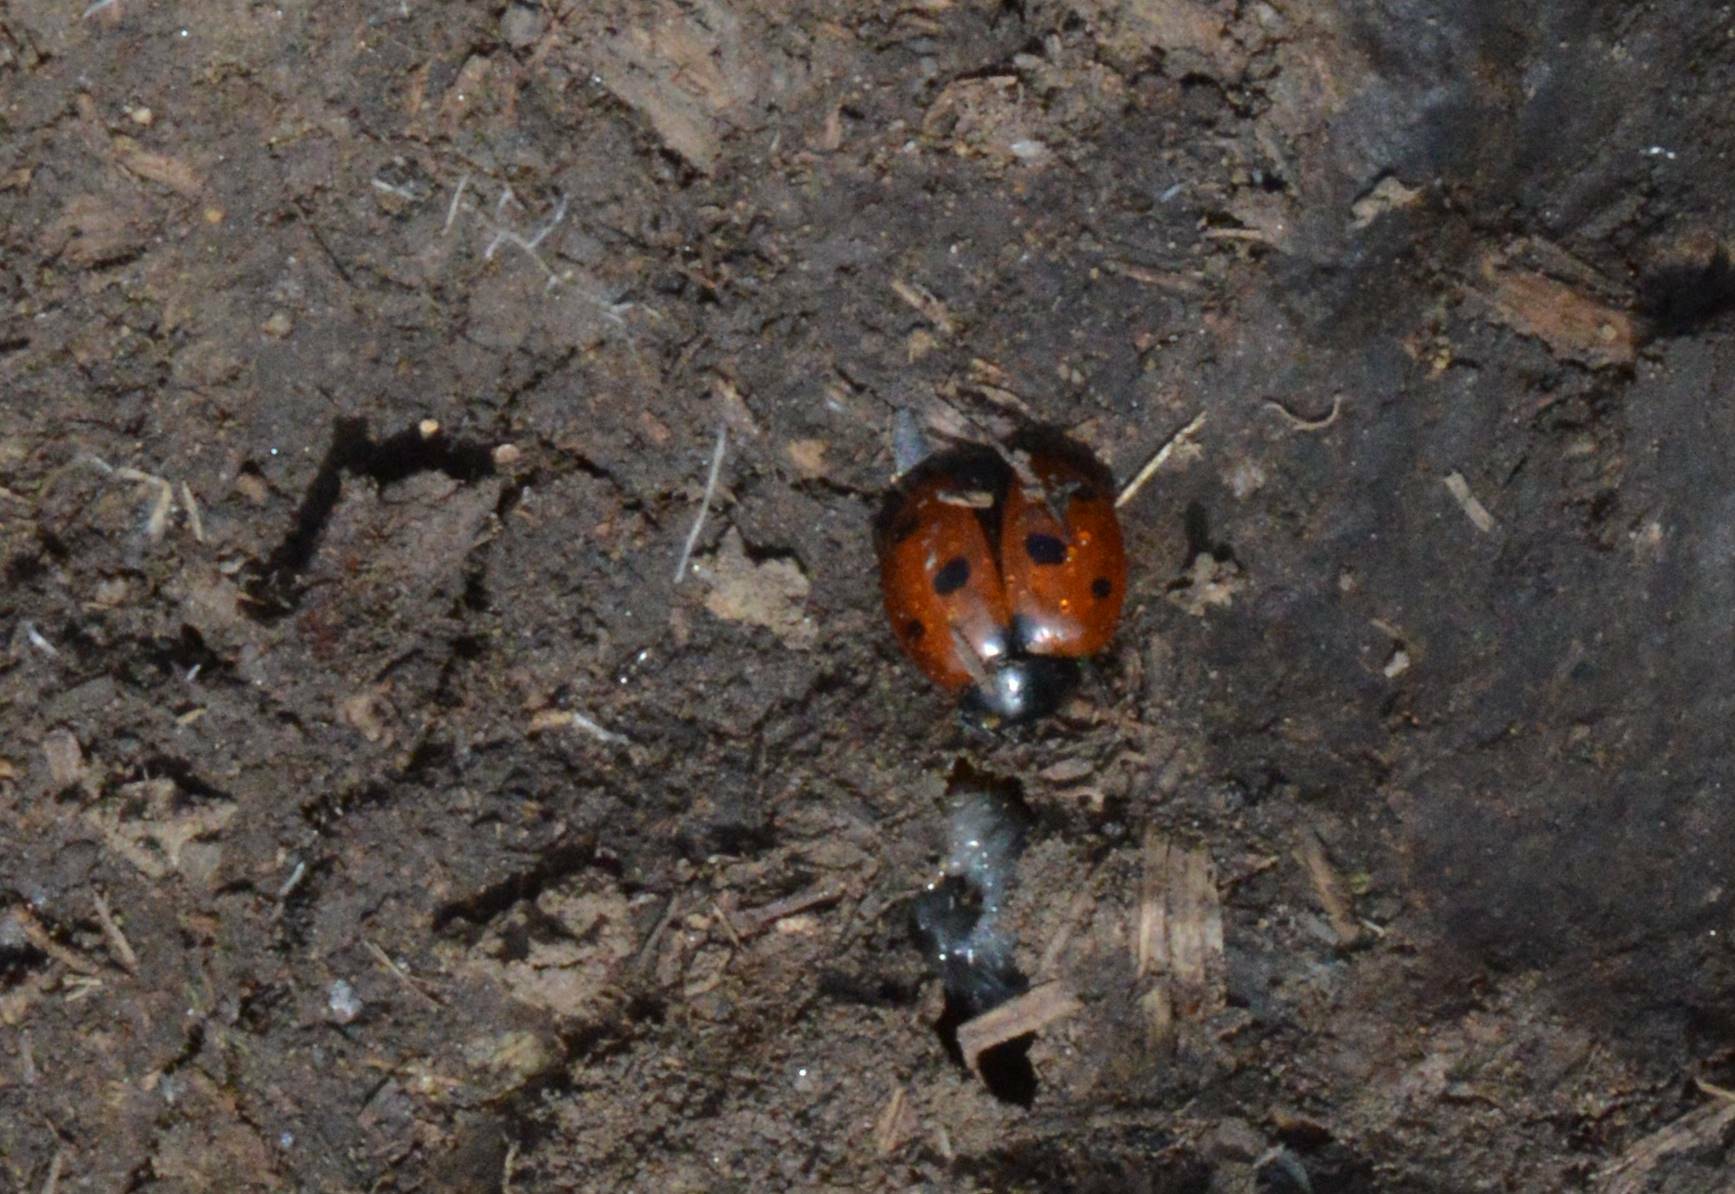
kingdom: Animalia
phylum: Arthropoda
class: Insecta
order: Coleoptera
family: Coccinellidae
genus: Coccinella
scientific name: Coccinella algerica
